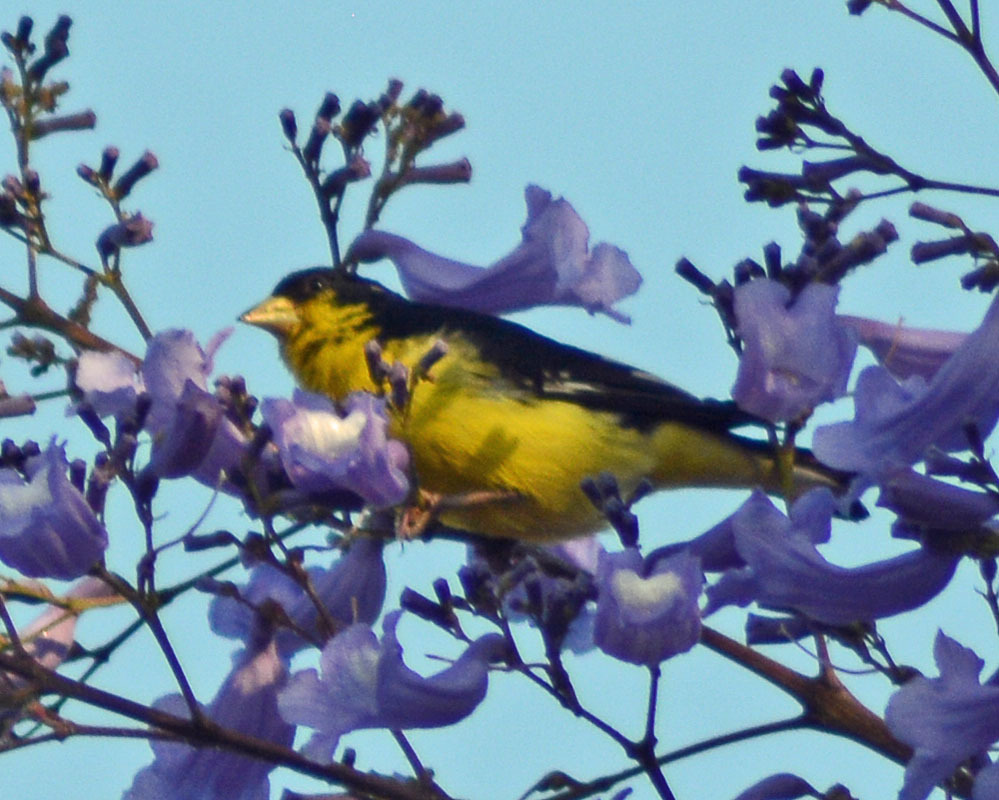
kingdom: Animalia
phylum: Chordata
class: Aves
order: Passeriformes
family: Fringillidae
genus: Spinus
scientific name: Spinus psaltria
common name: Lesser goldfinch
